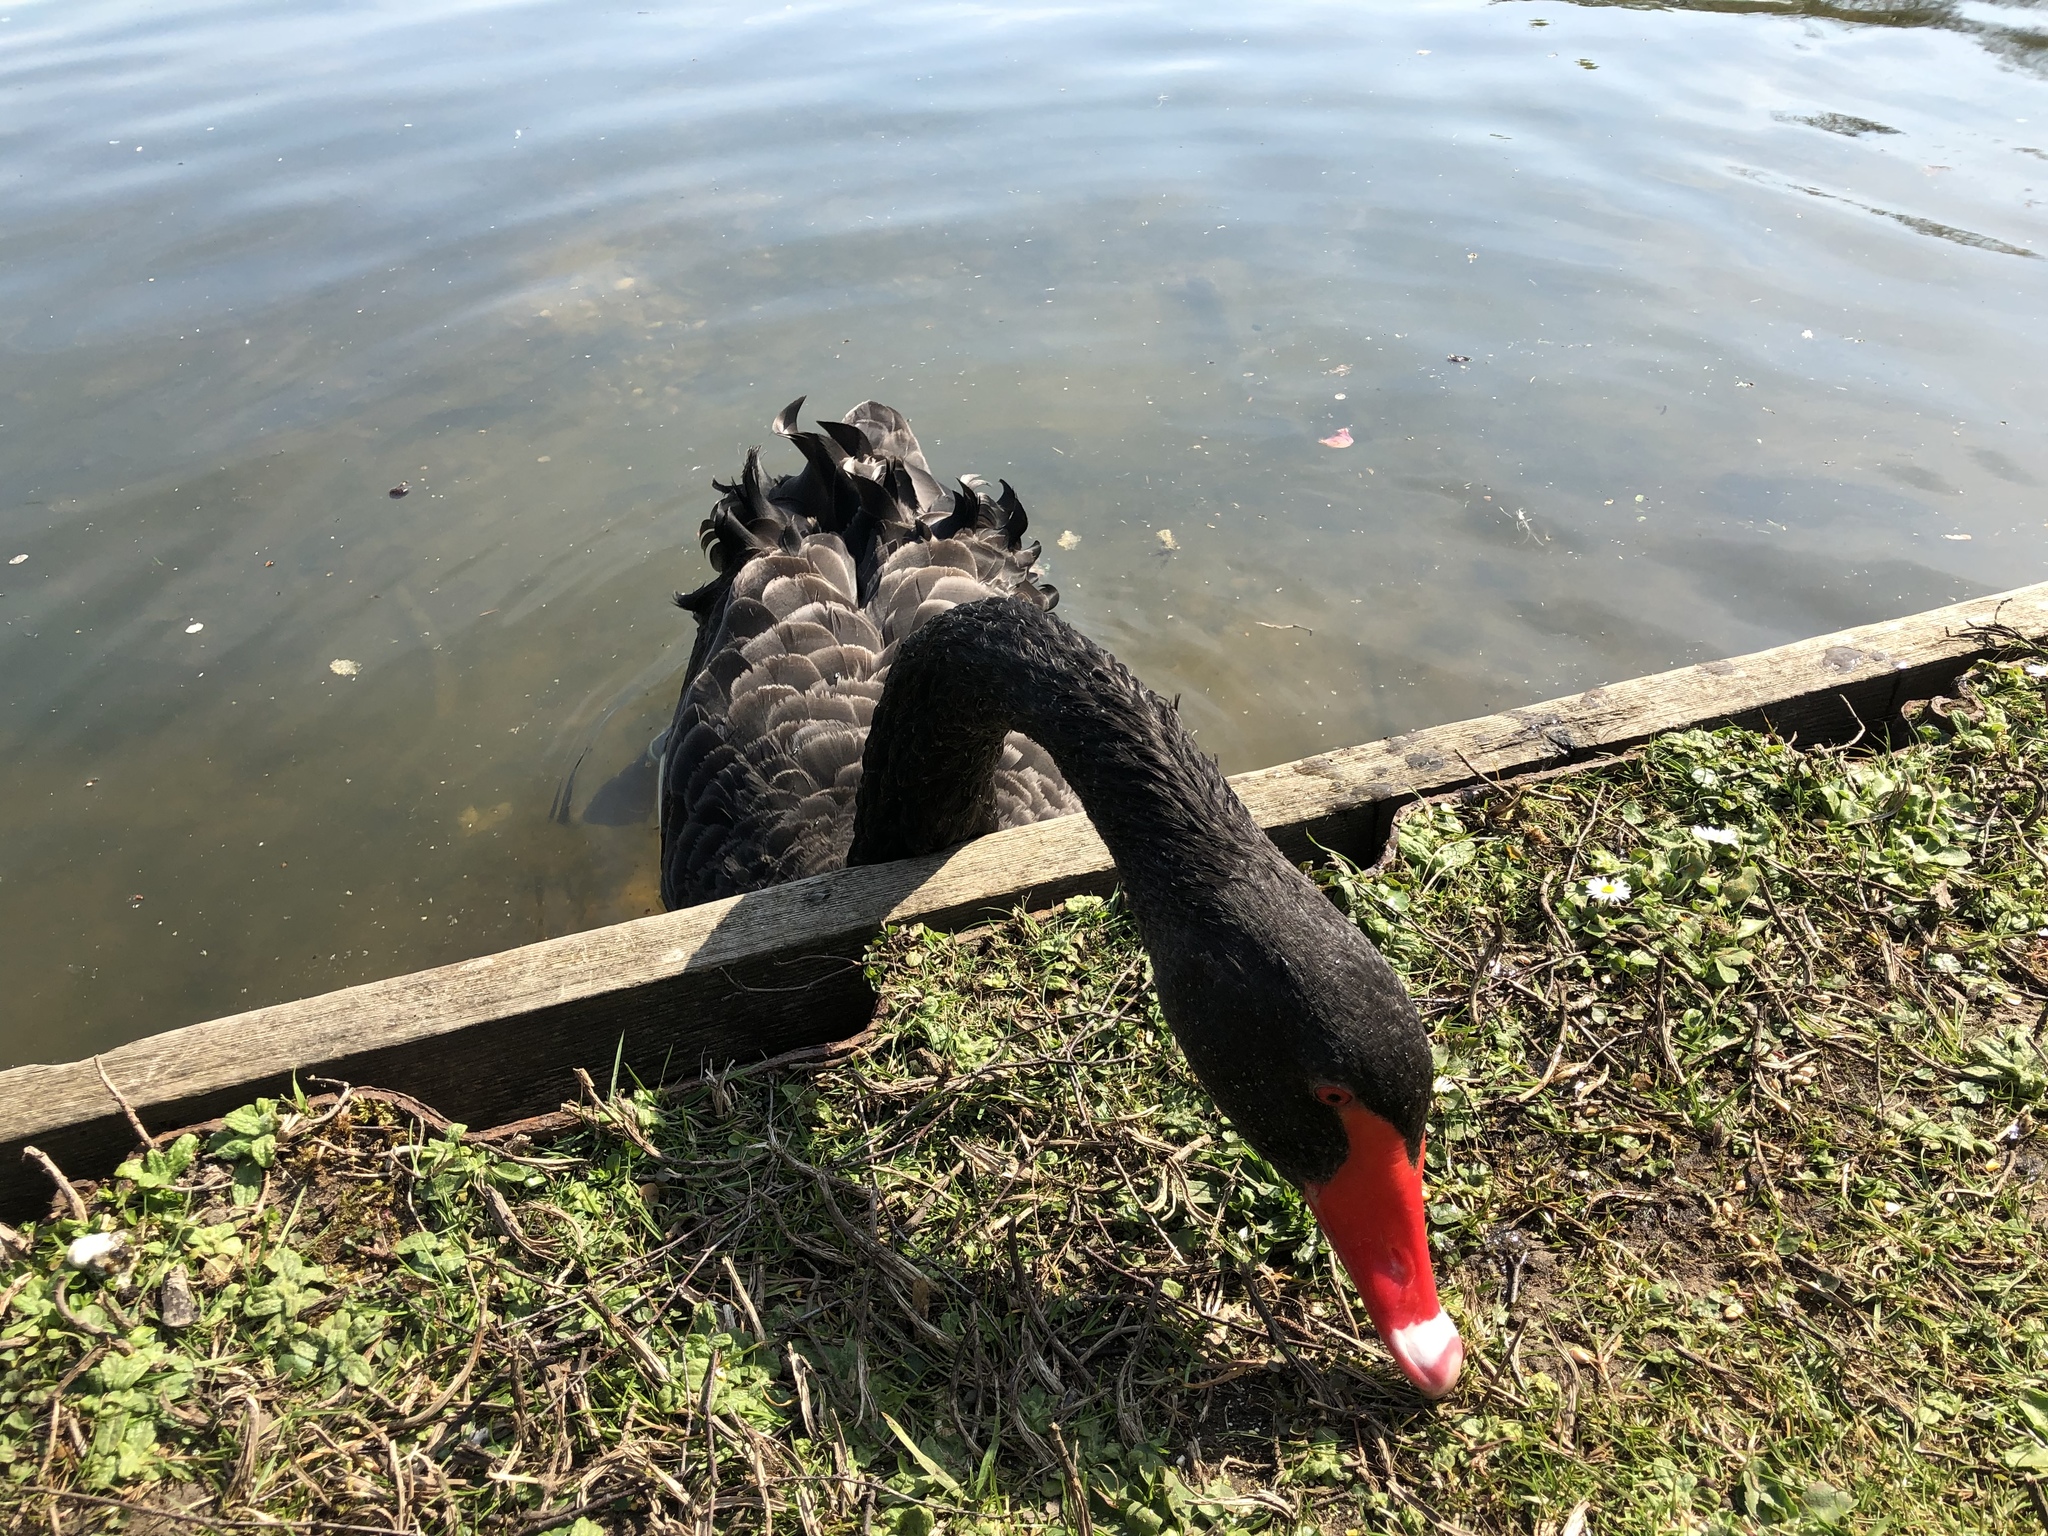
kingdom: Animalia
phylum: Chordata
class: Aves
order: Anseriformes
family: Anatidae
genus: Cygnus
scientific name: Cygnus atratus
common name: Black swan
